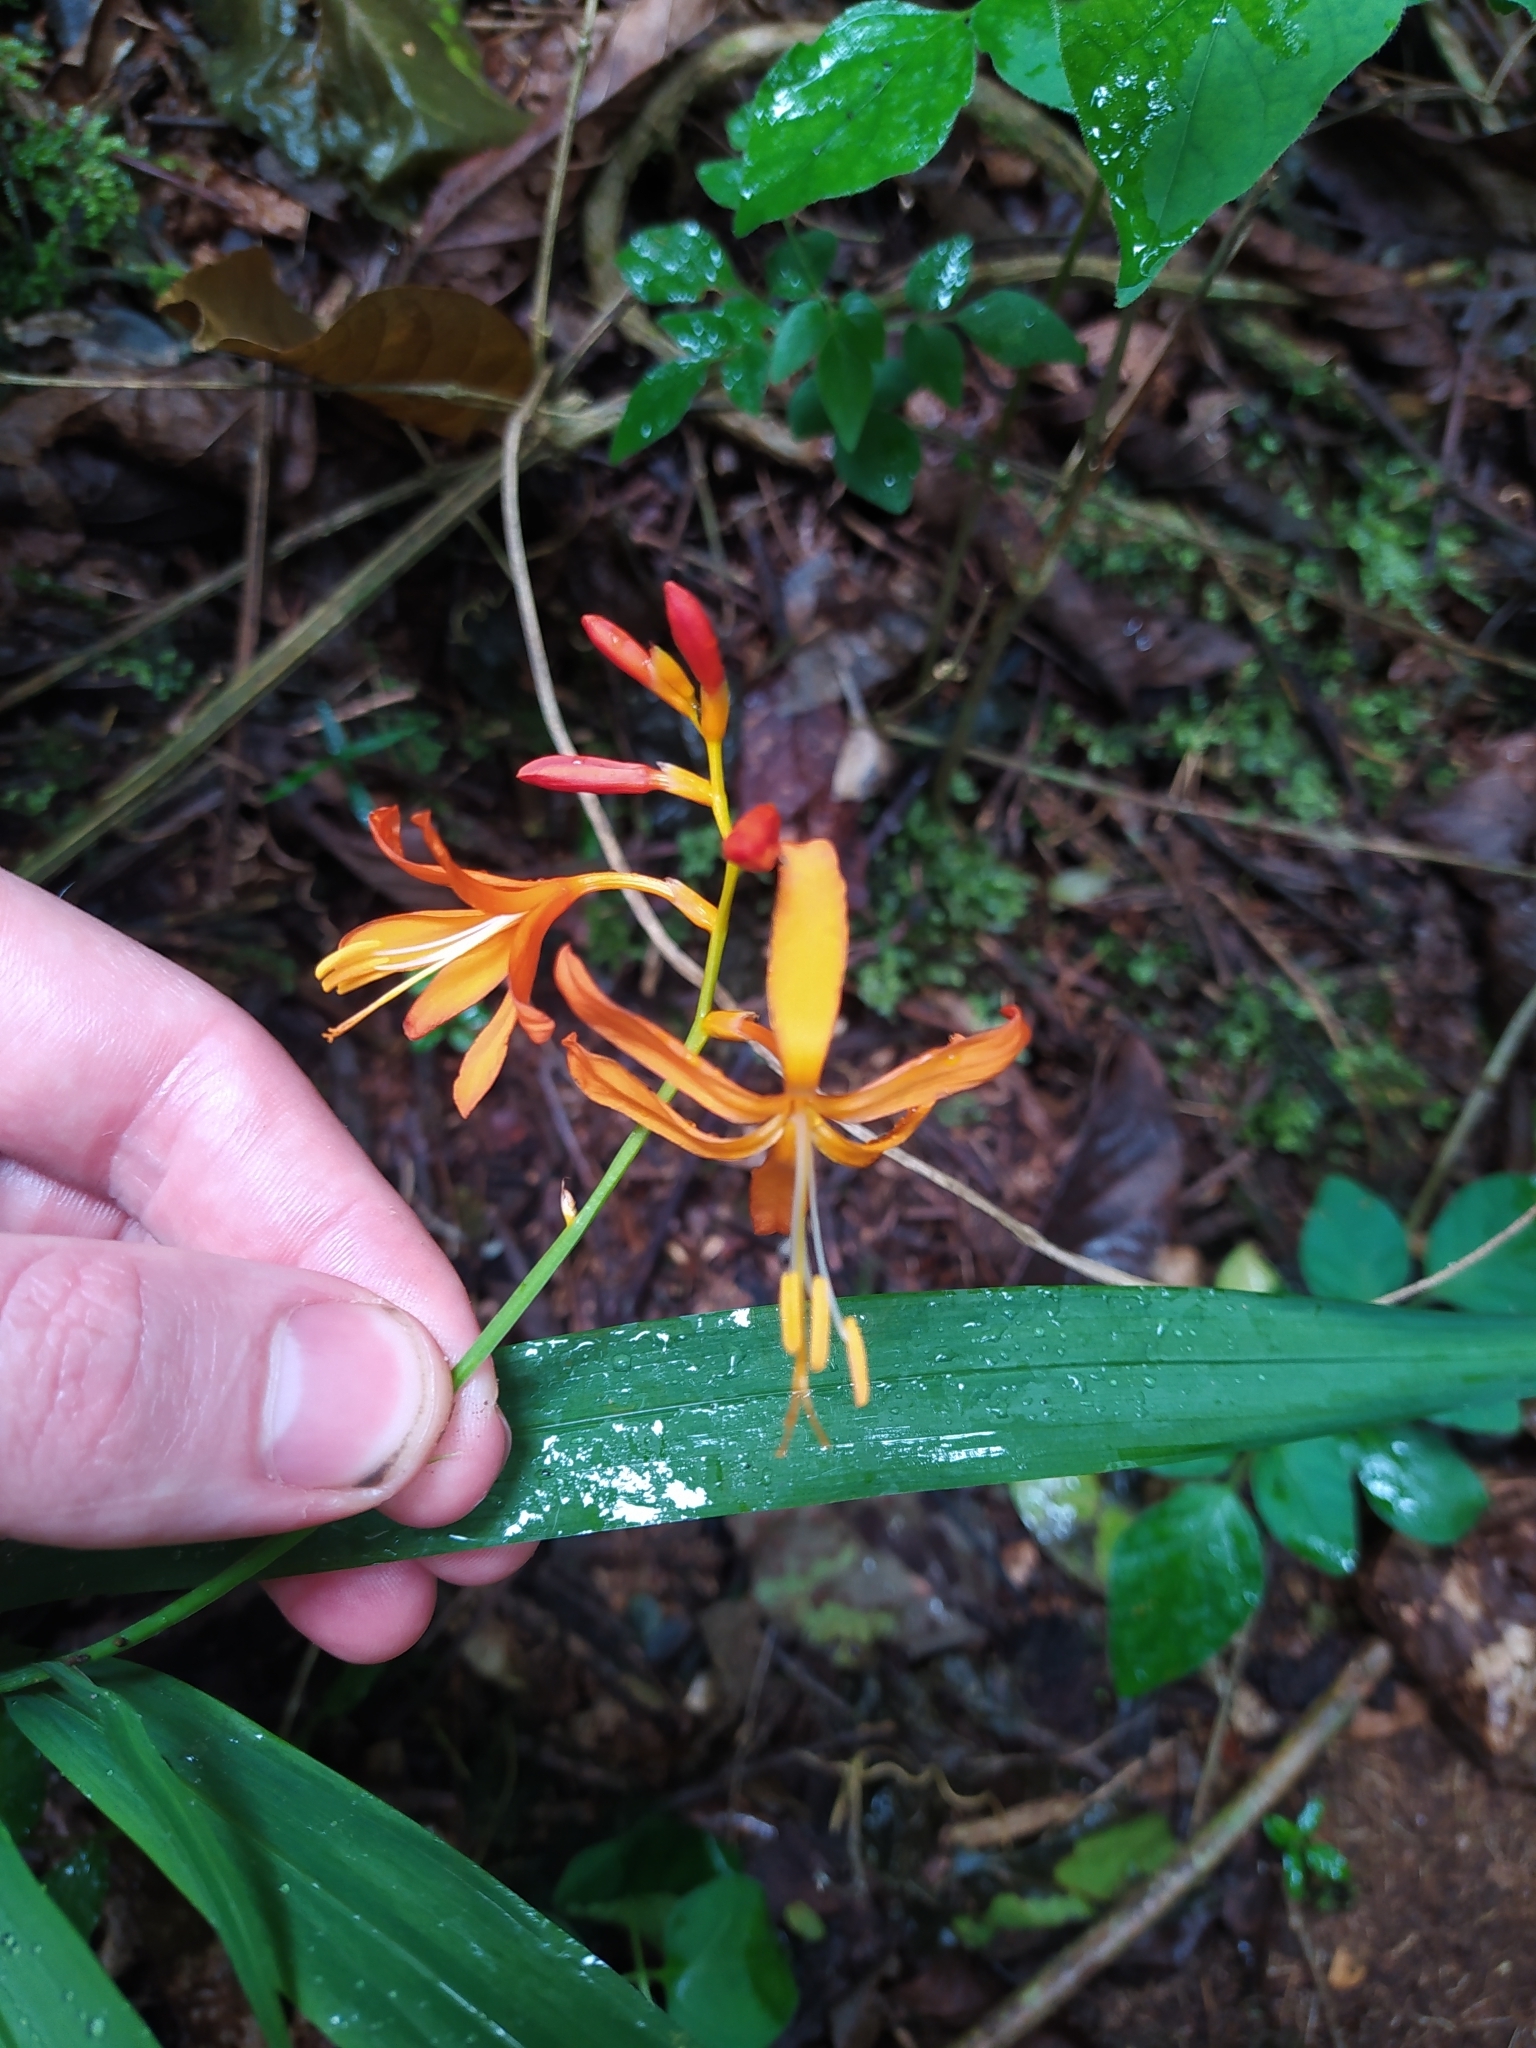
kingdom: Plantae
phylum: Tracheophyta
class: Liliopsida
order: Asparagales
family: Iridaceae
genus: Crocosmia
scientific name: Crocosmia aurea
